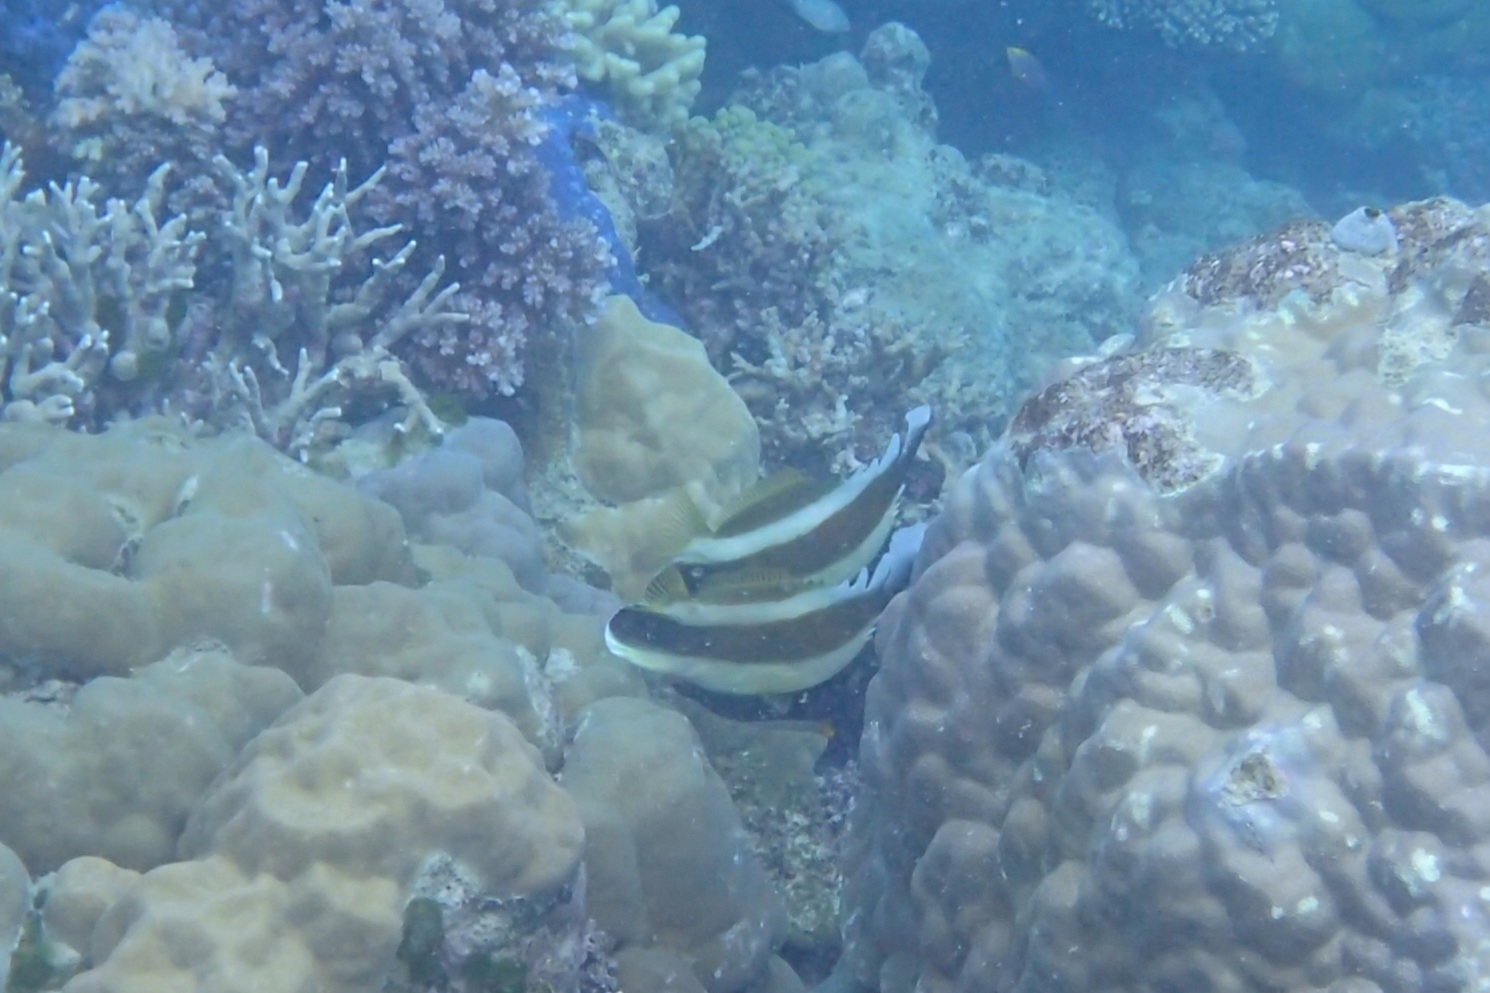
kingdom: Animalia
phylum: Chordata
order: Perciformes
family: Chaetodontidae
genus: Heniochus
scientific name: Heniochus chrysostomus
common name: Horned bannerfish
